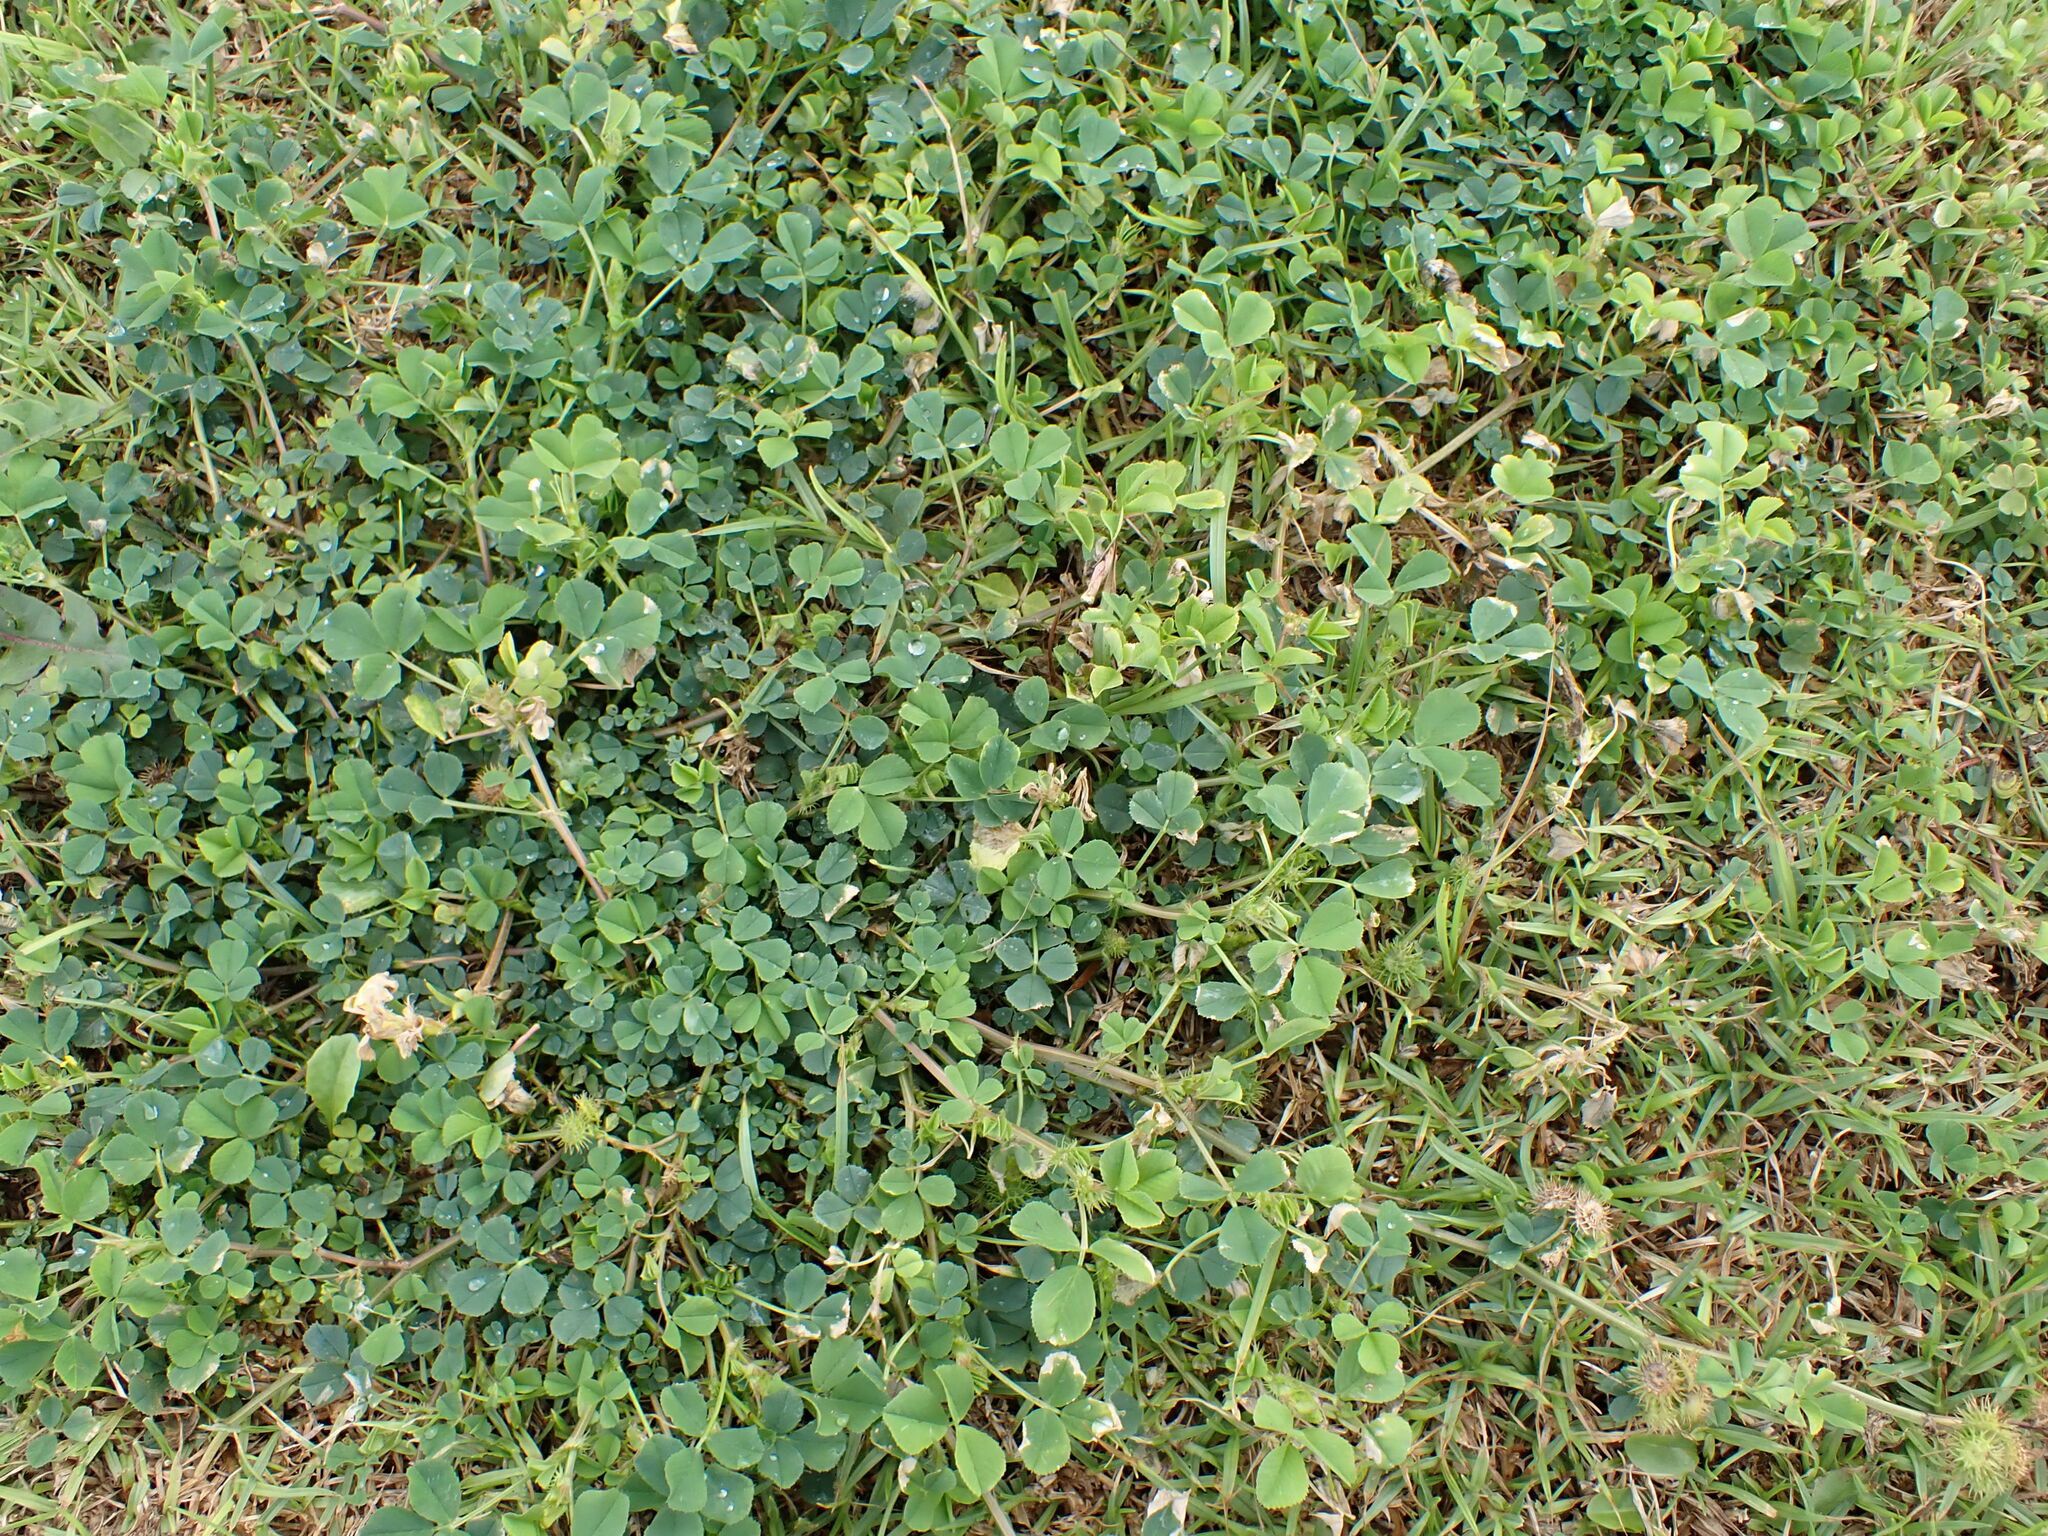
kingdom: Plantae
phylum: Tracheophyta
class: Magnoliopsida
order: Fabales
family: Fabaceae
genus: Medicago
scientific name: Medicago polymorpha
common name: Burclover
